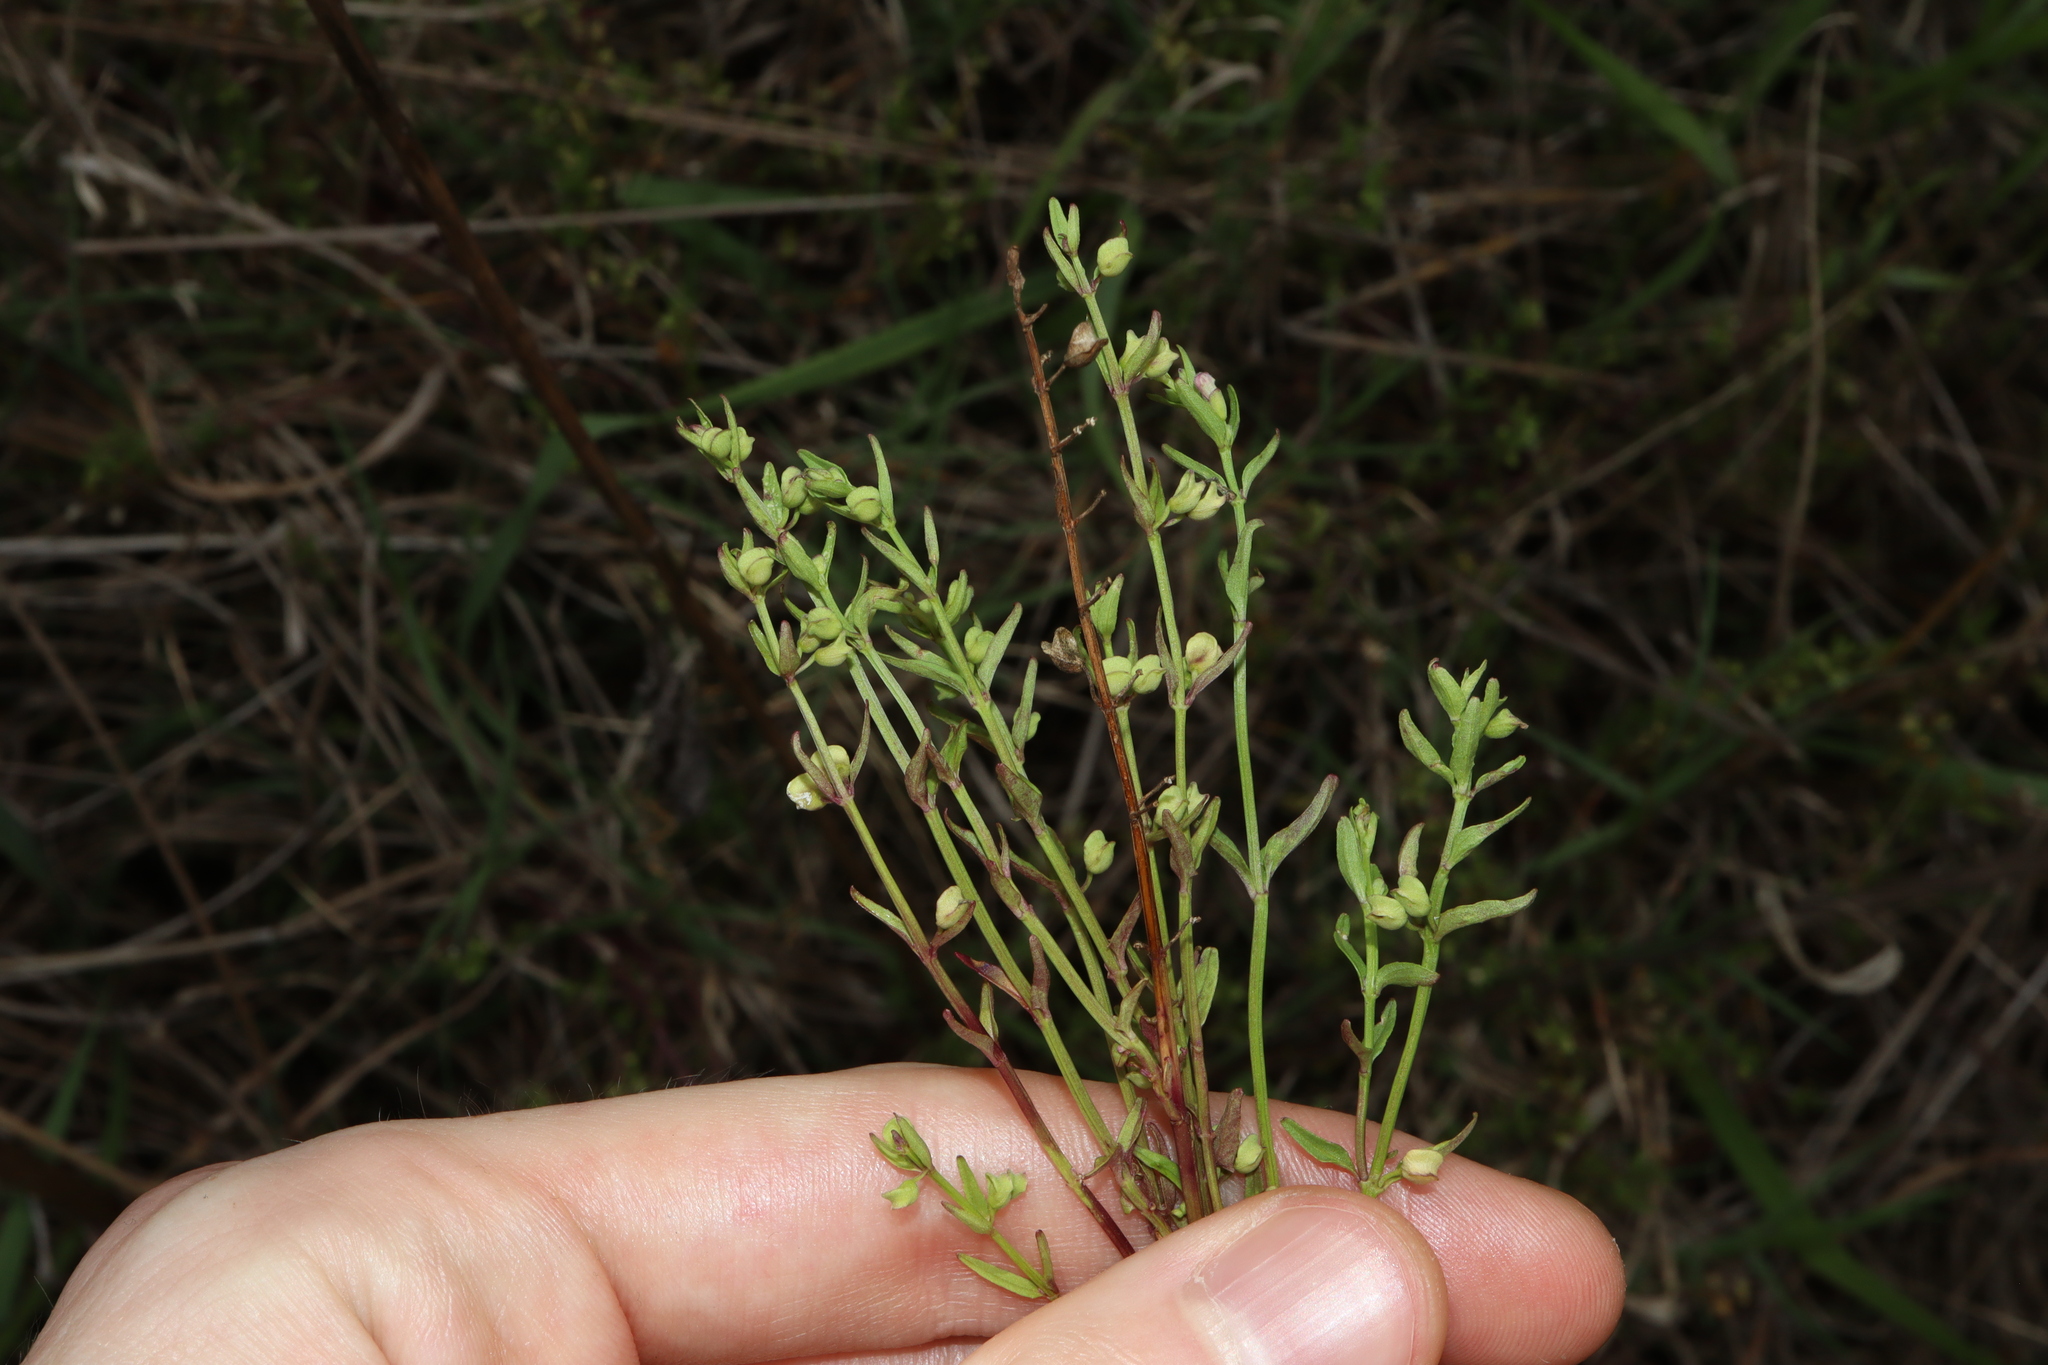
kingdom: Plantae
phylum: Tracheophyta
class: Magnoliopsida
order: Lamiales
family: Lamiaceae
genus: Scutellaria
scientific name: Scutellaria racemosa
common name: South american skullcap
